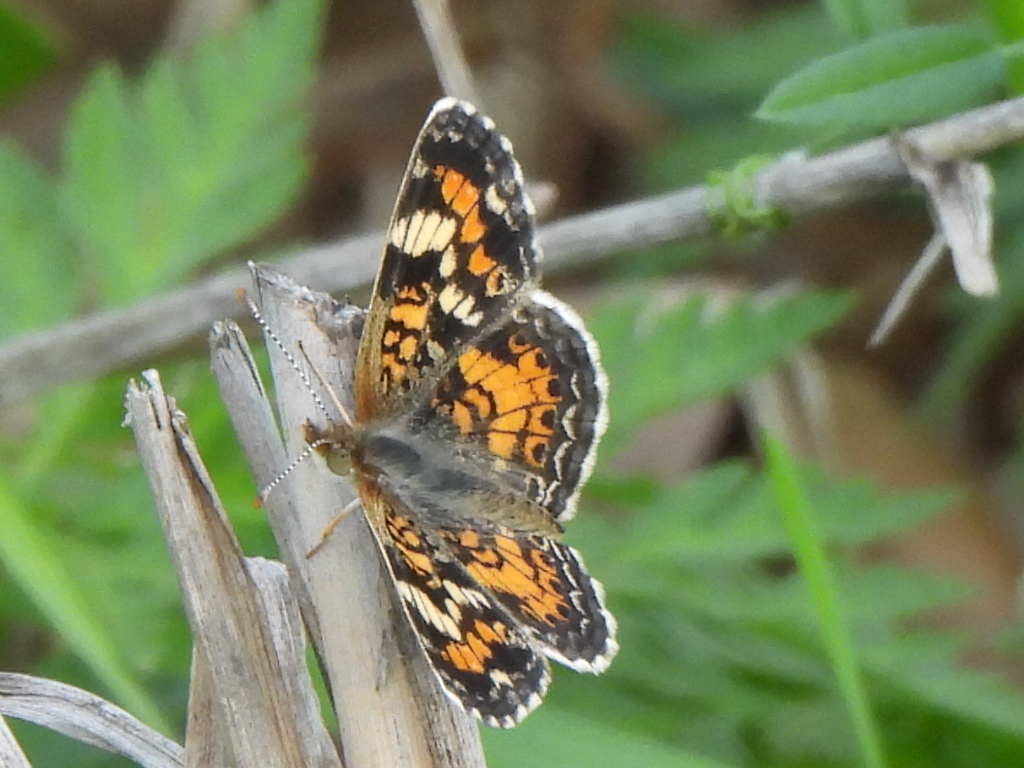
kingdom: Animalia
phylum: Arthropoda
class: Insecta
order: Lepidoptera
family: Nymphalidae
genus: Phyciodes
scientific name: Phyciodes phaon
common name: Phaon crescent
